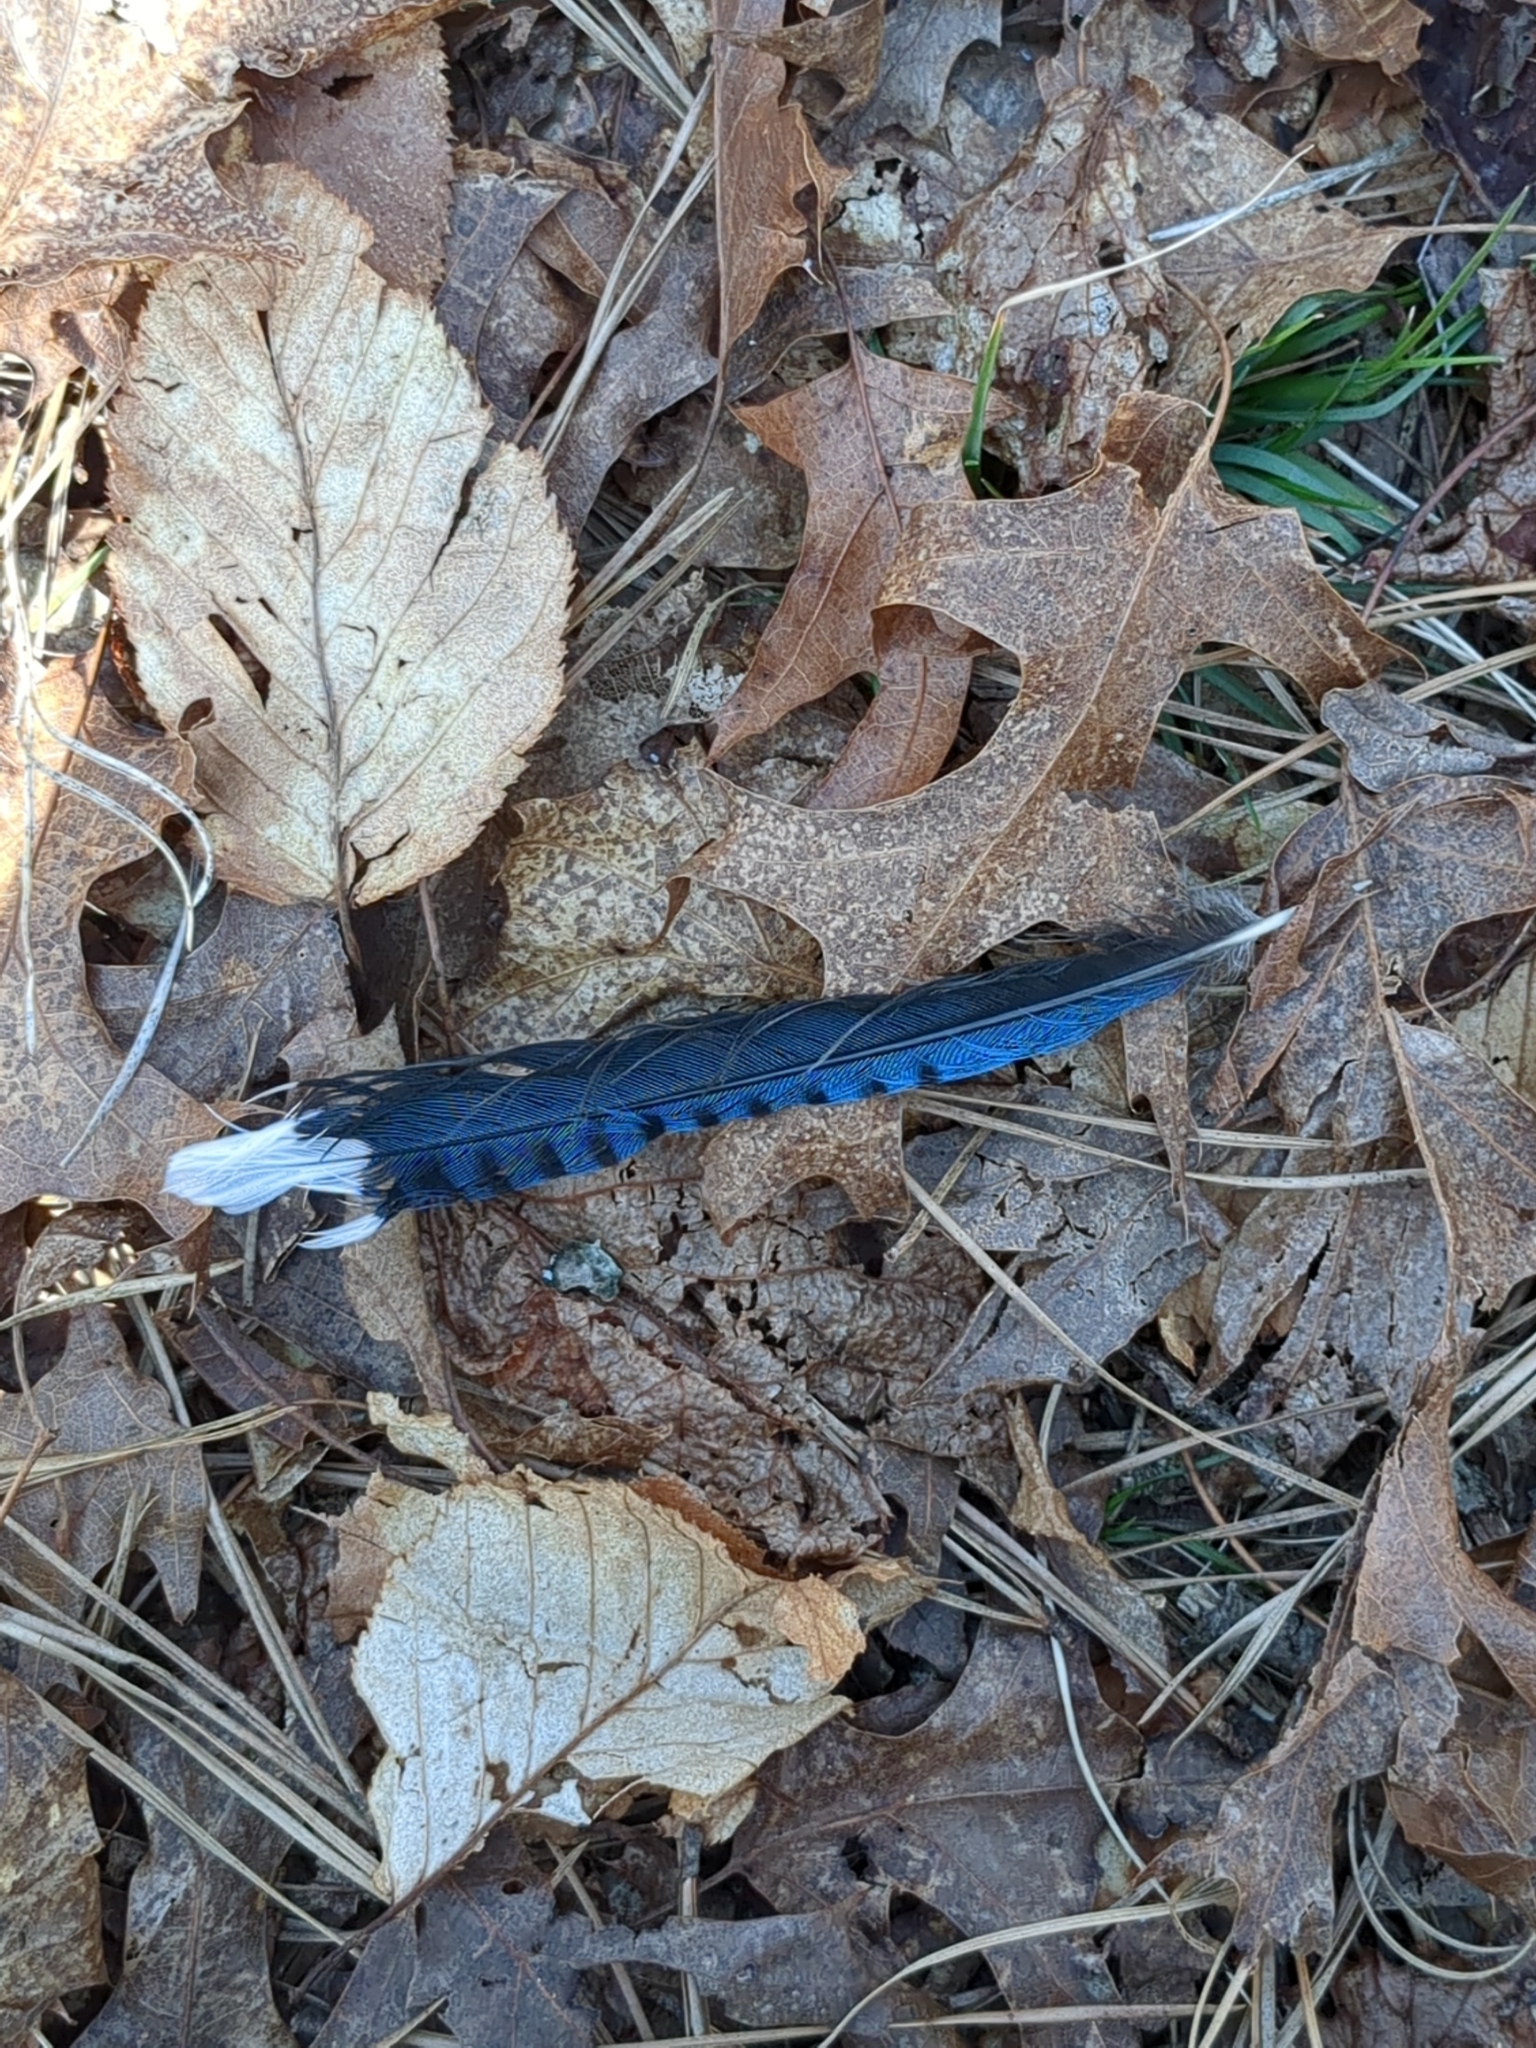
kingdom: Animalia
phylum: Chordata
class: Aves
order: Passeriformes
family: Corvidae
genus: Cyanocitta
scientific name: Cyanocitta cristata
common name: Blue jay
